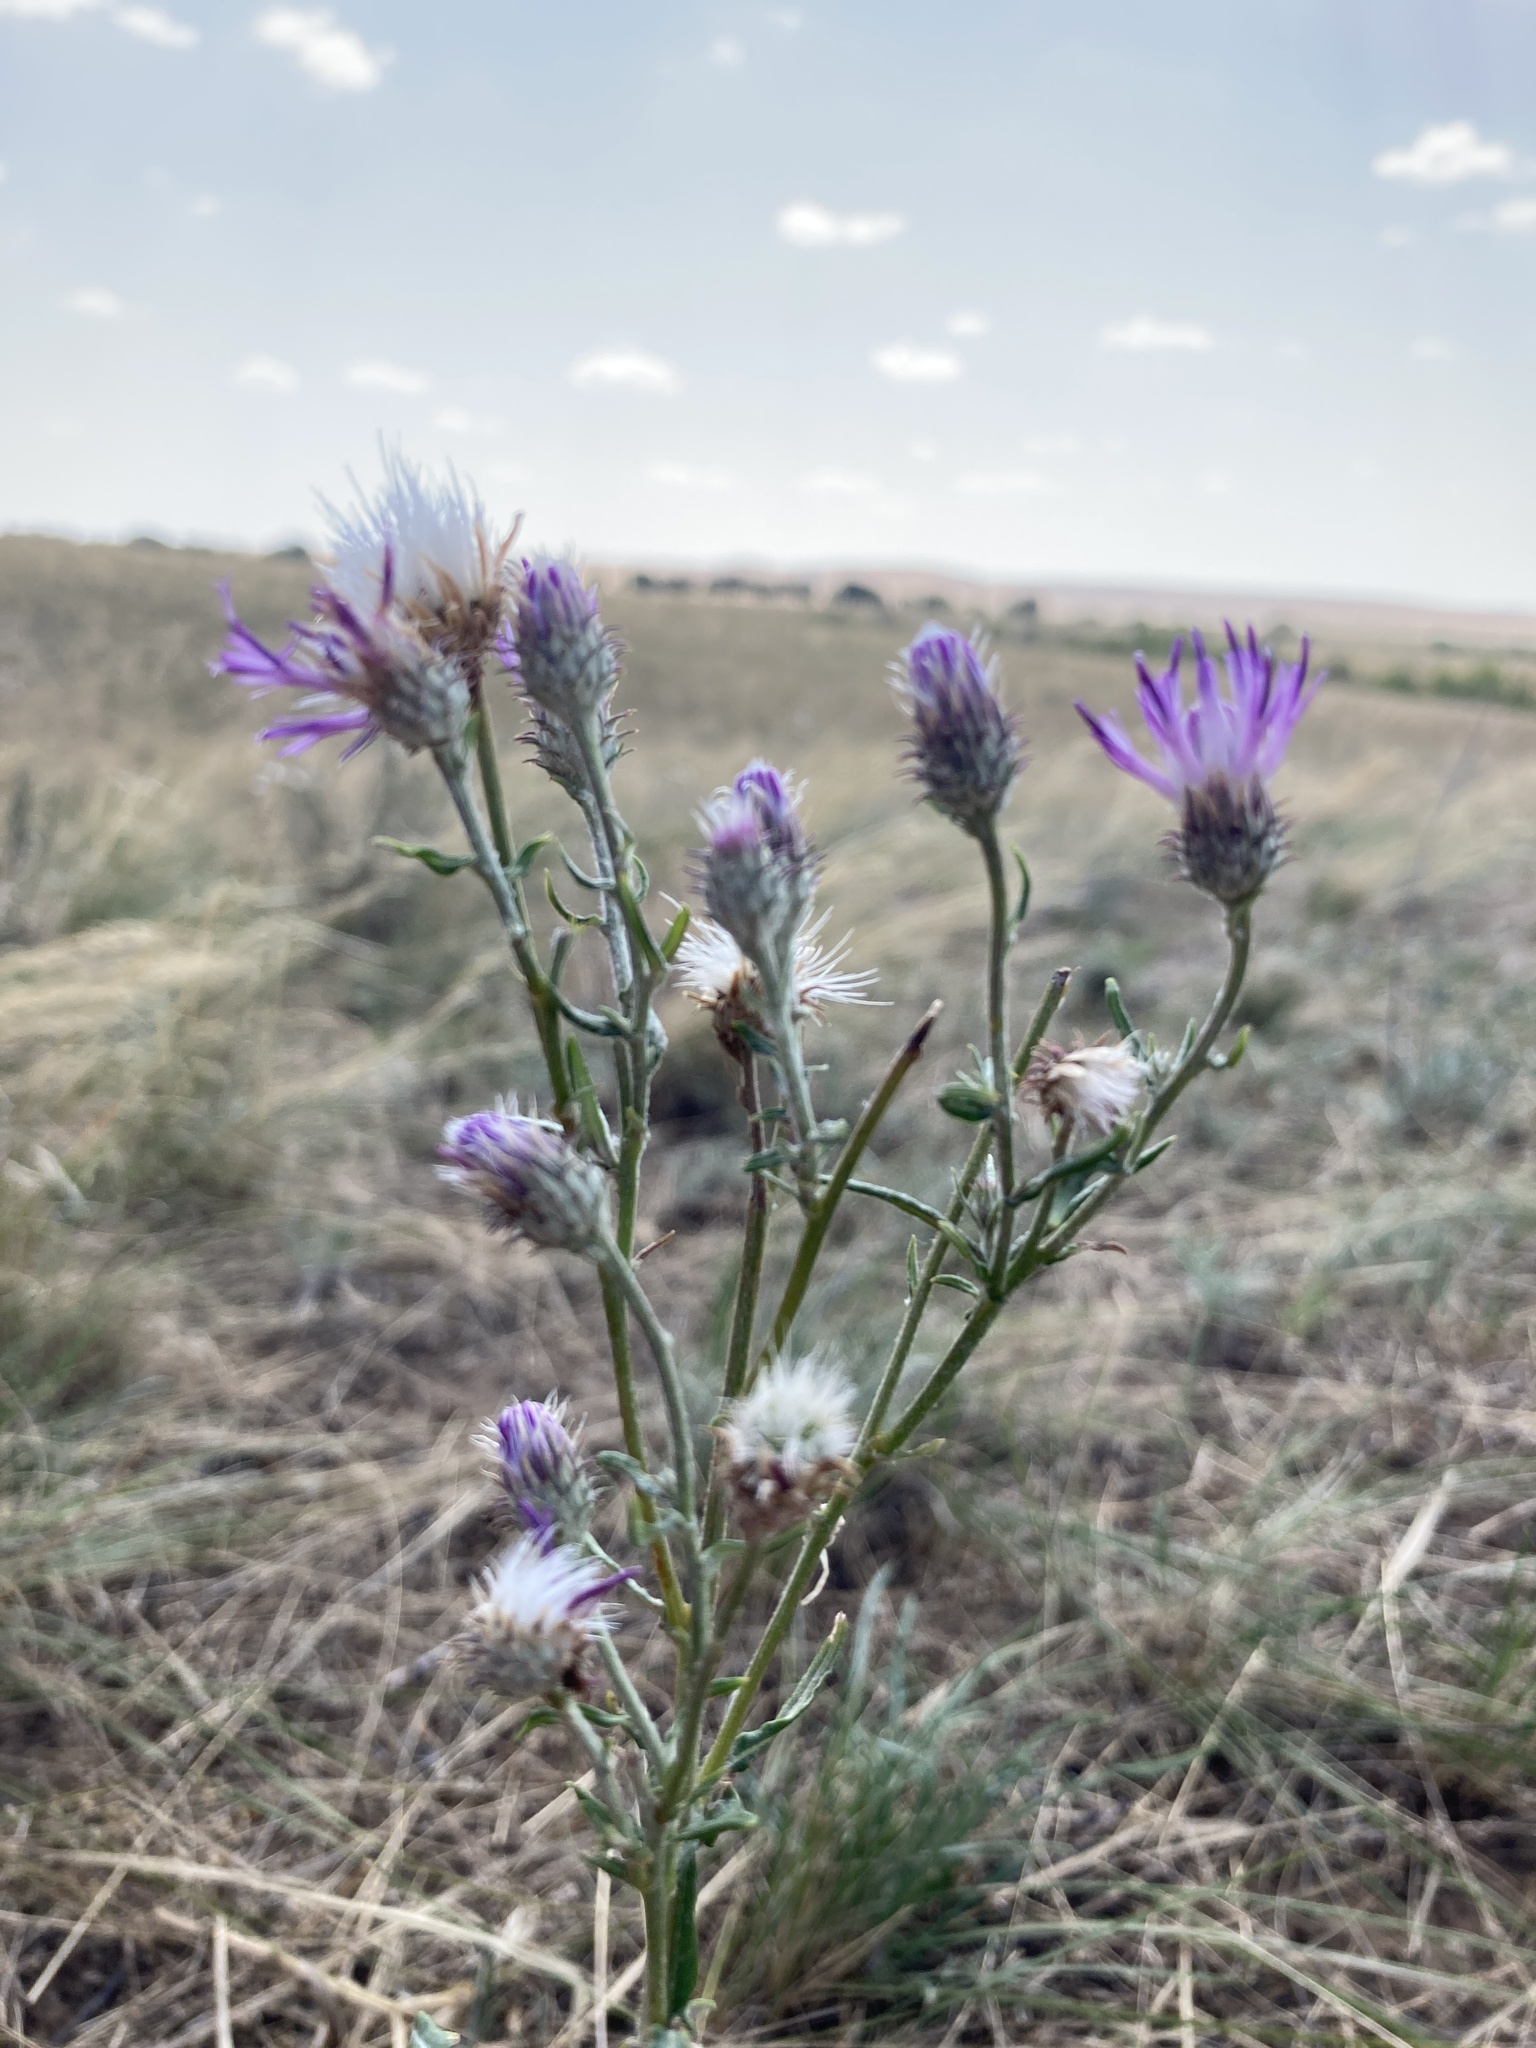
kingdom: Plantae
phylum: Tracheophyta
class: Magnoliopsida
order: Asterales
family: Asteraceae
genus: Jurinea
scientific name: Jurinea polyclonos
